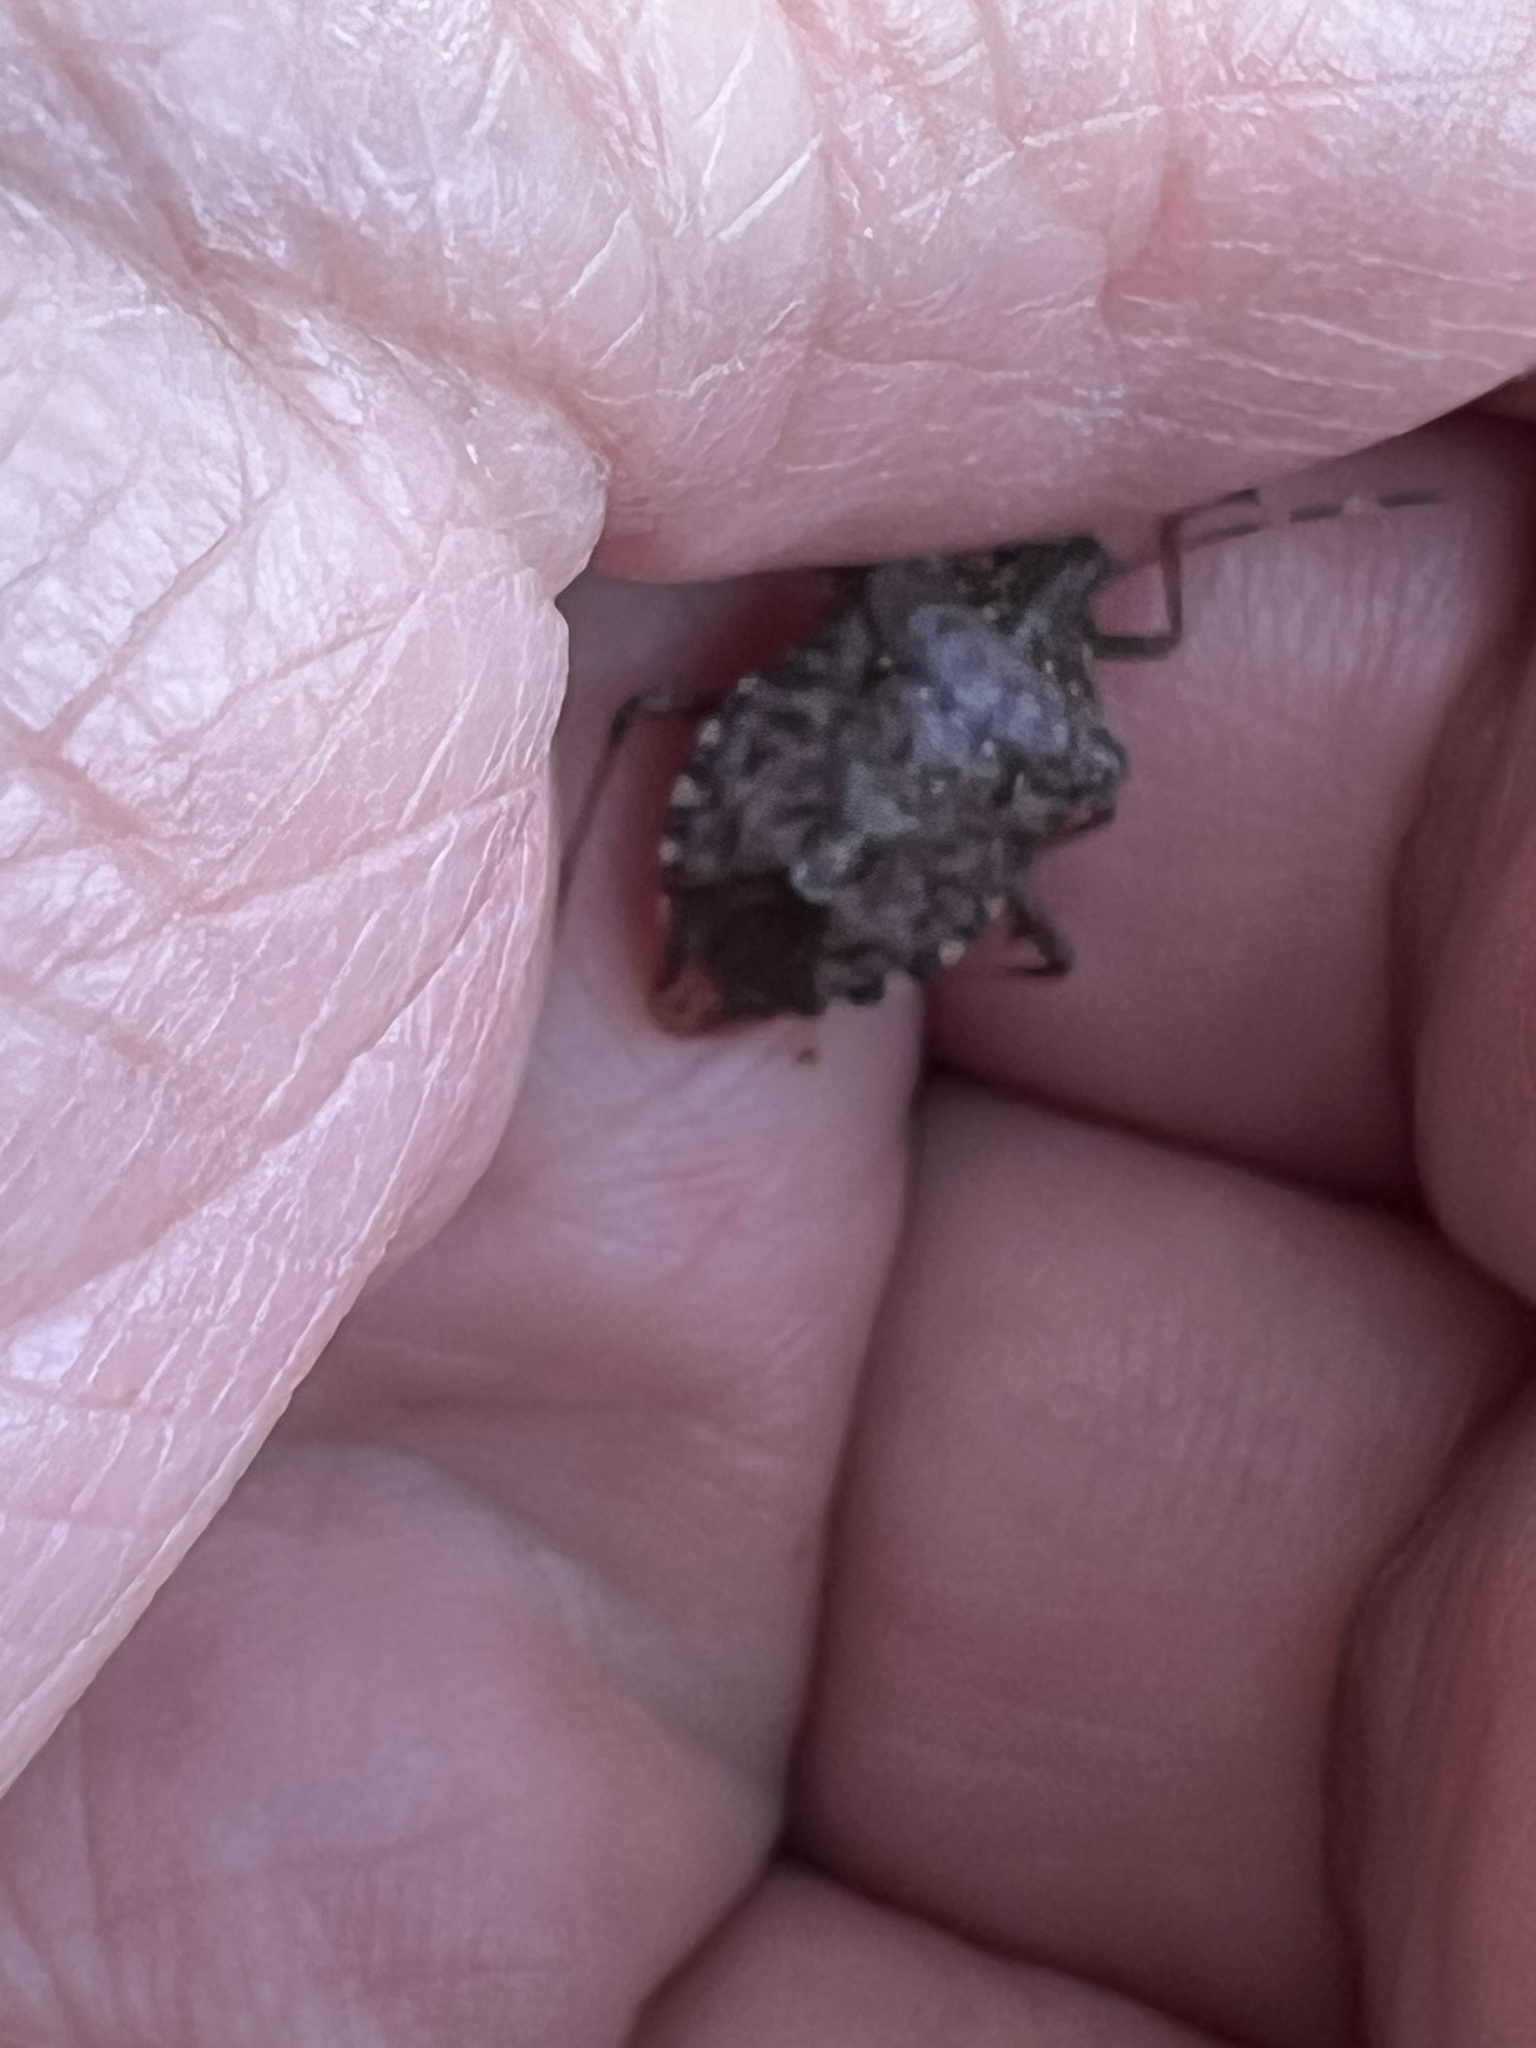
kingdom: Animalia
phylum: Arthropoda
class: Insecta
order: Hemiptera
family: Pentatomidae
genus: Halyomorpha
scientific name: Halyomorpha halys
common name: Brown marmorated stink bug
